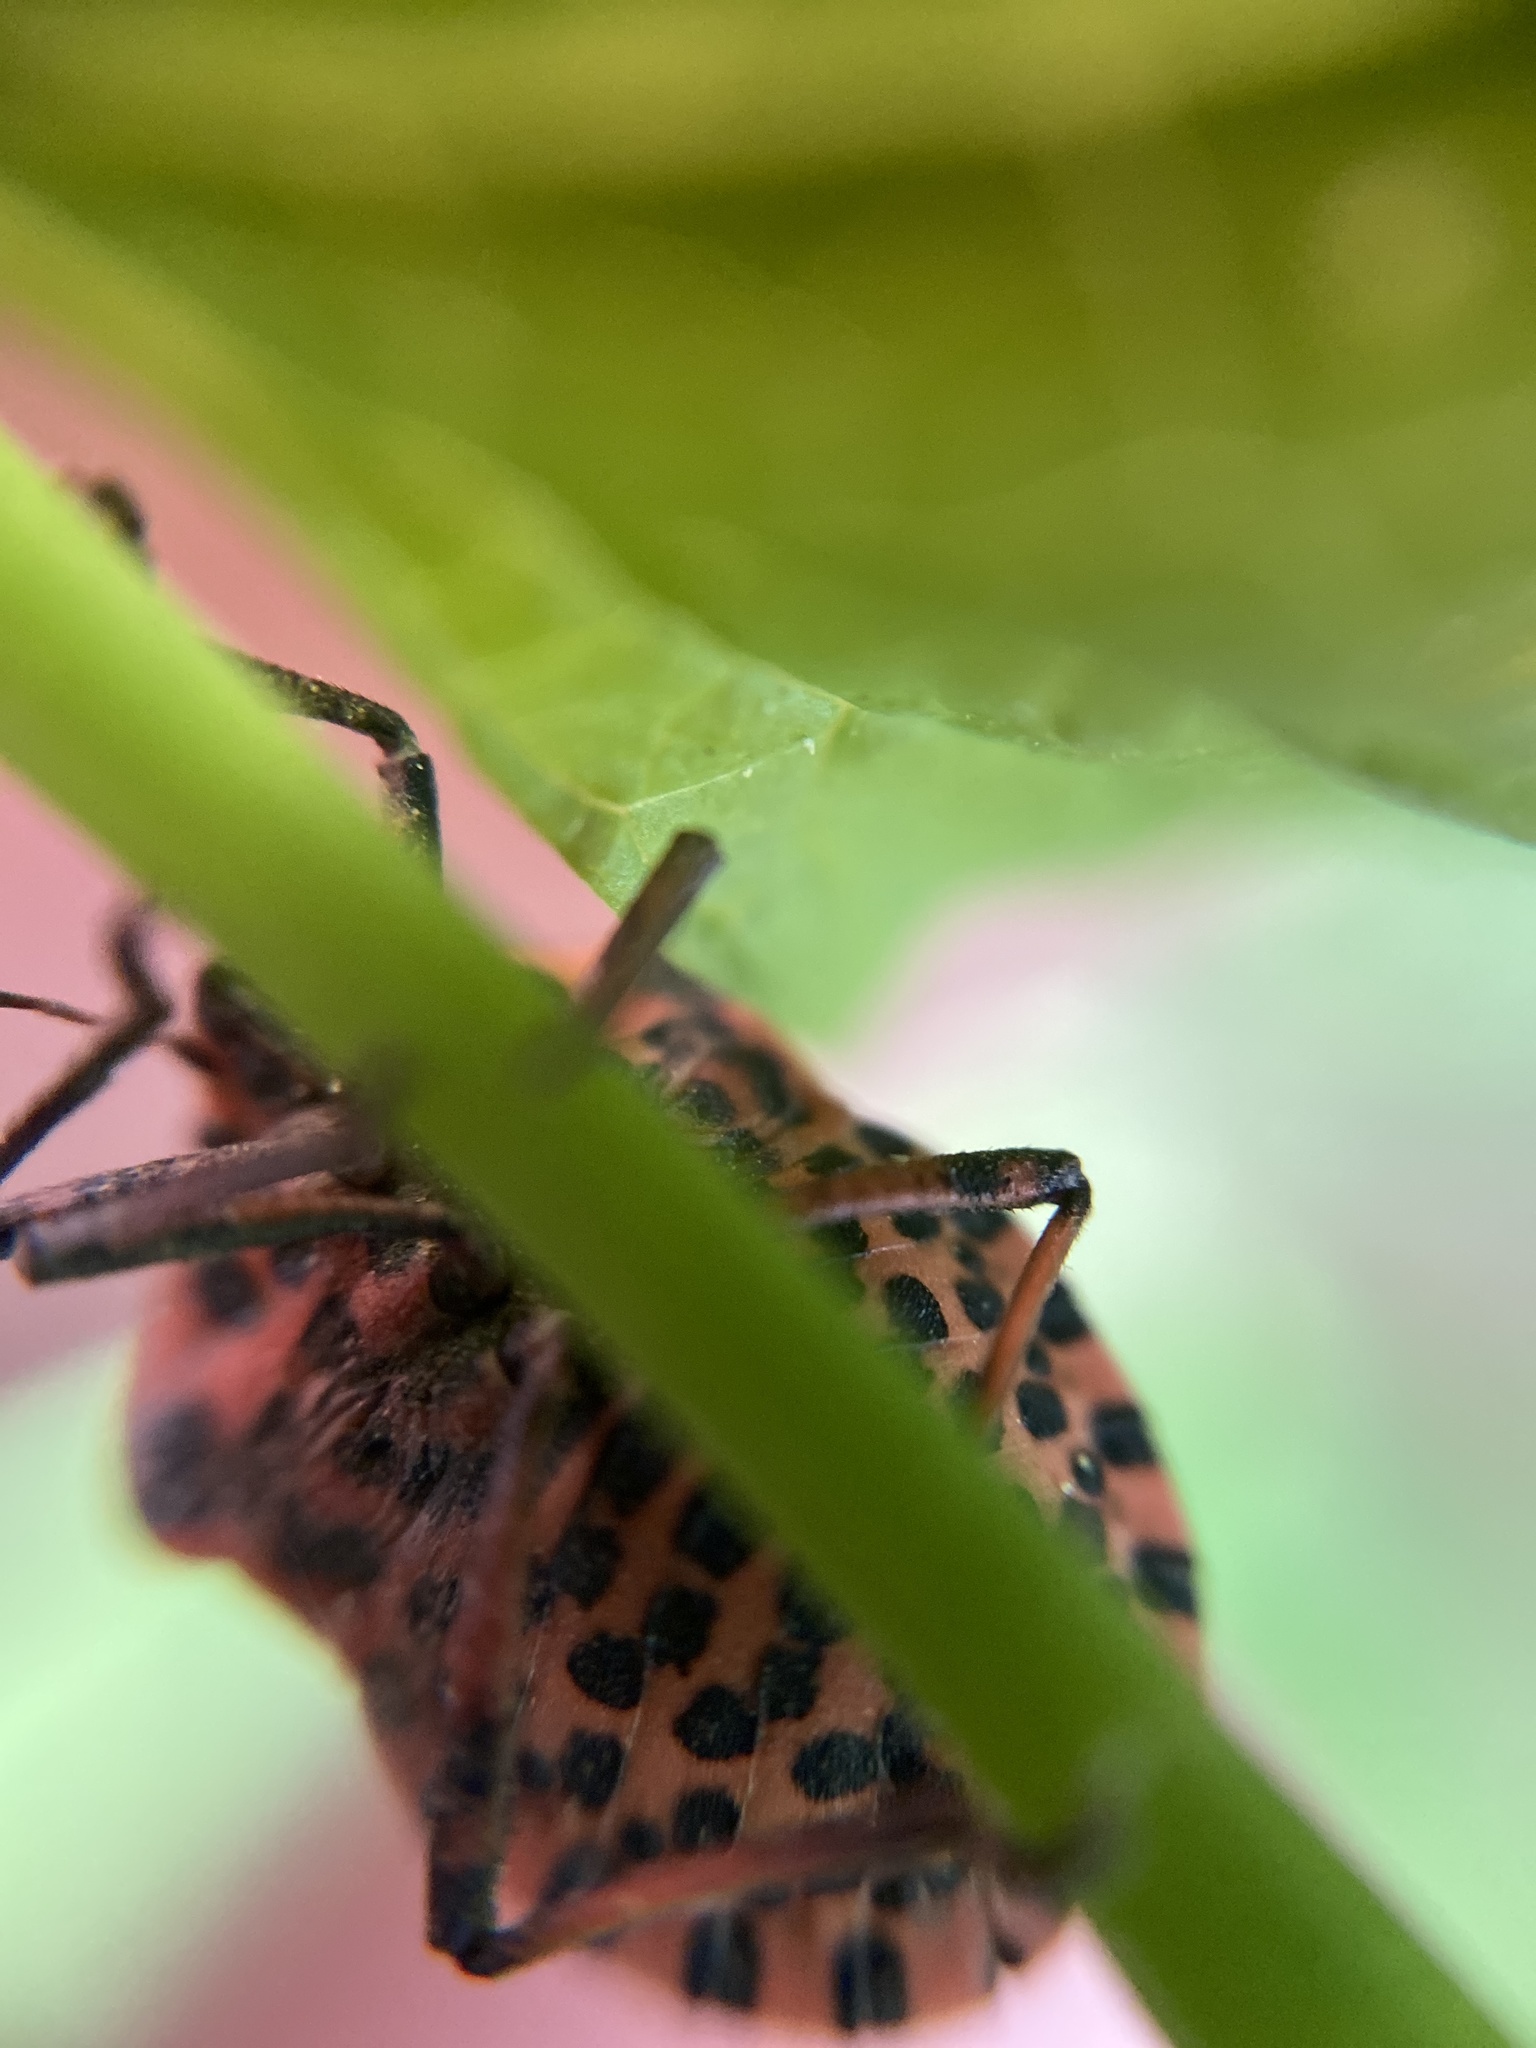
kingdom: Animalia
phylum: Arthropoda
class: Insecta
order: Hemiptera
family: Pentatomidae
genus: Graphosoma
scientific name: Graphosoma italicum
